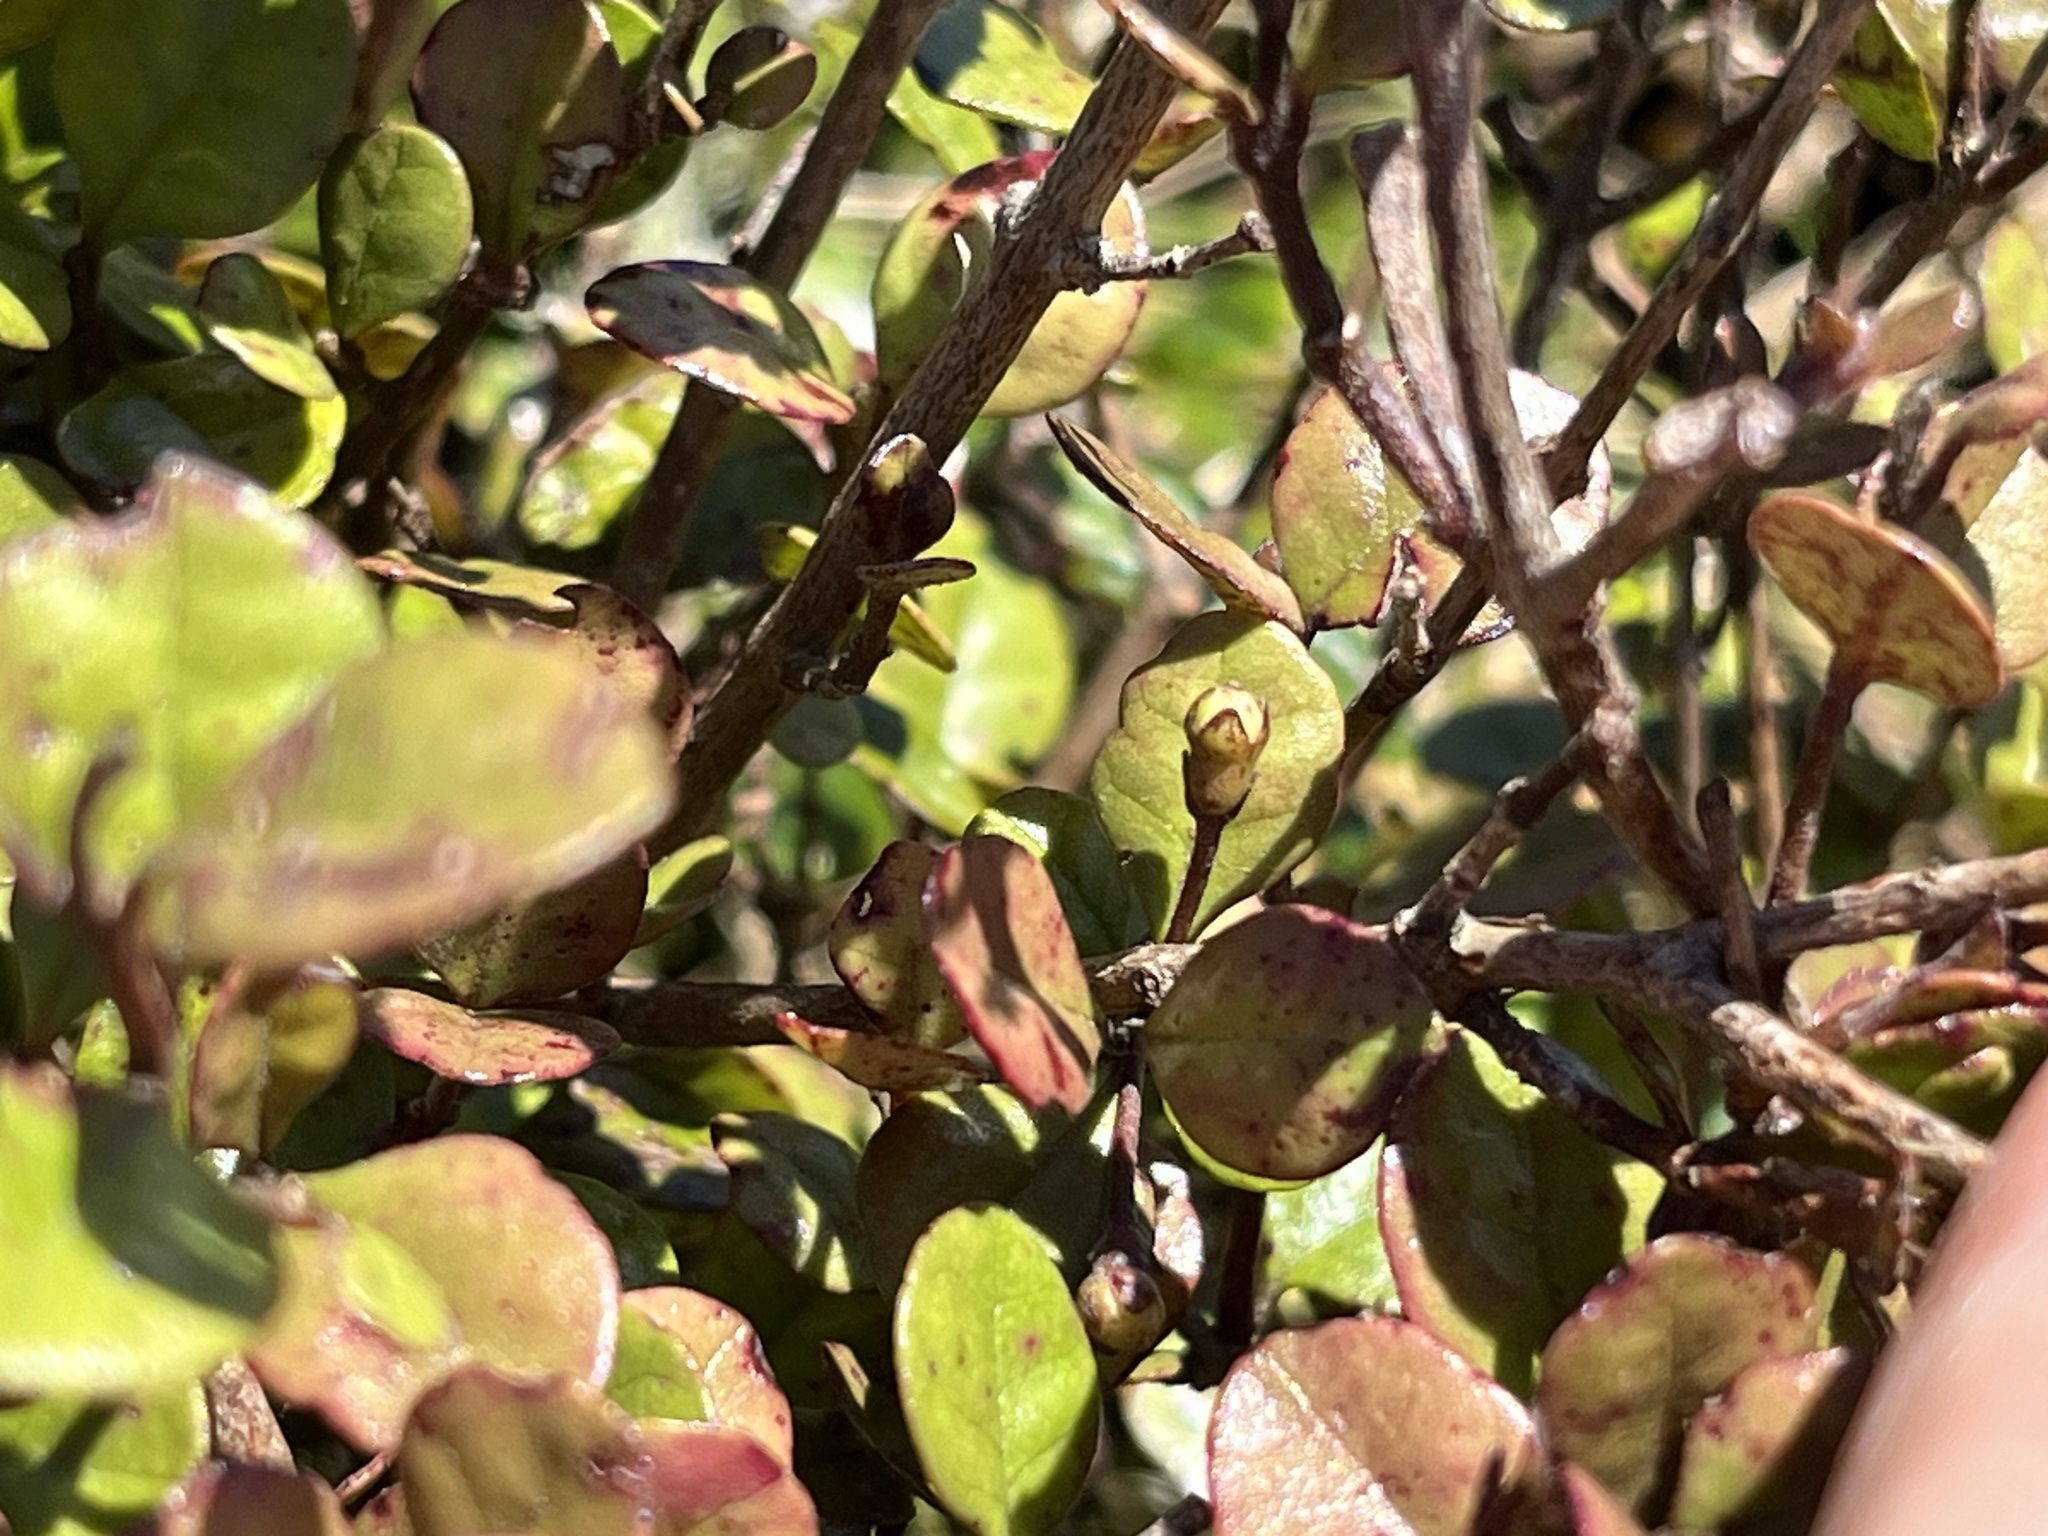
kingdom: Plantae
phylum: Tracheophyta
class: Magnoliopsida
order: Myrtales
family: Myrtaceae
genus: Lophomyrtus
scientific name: Lophomyrtus ralphii
